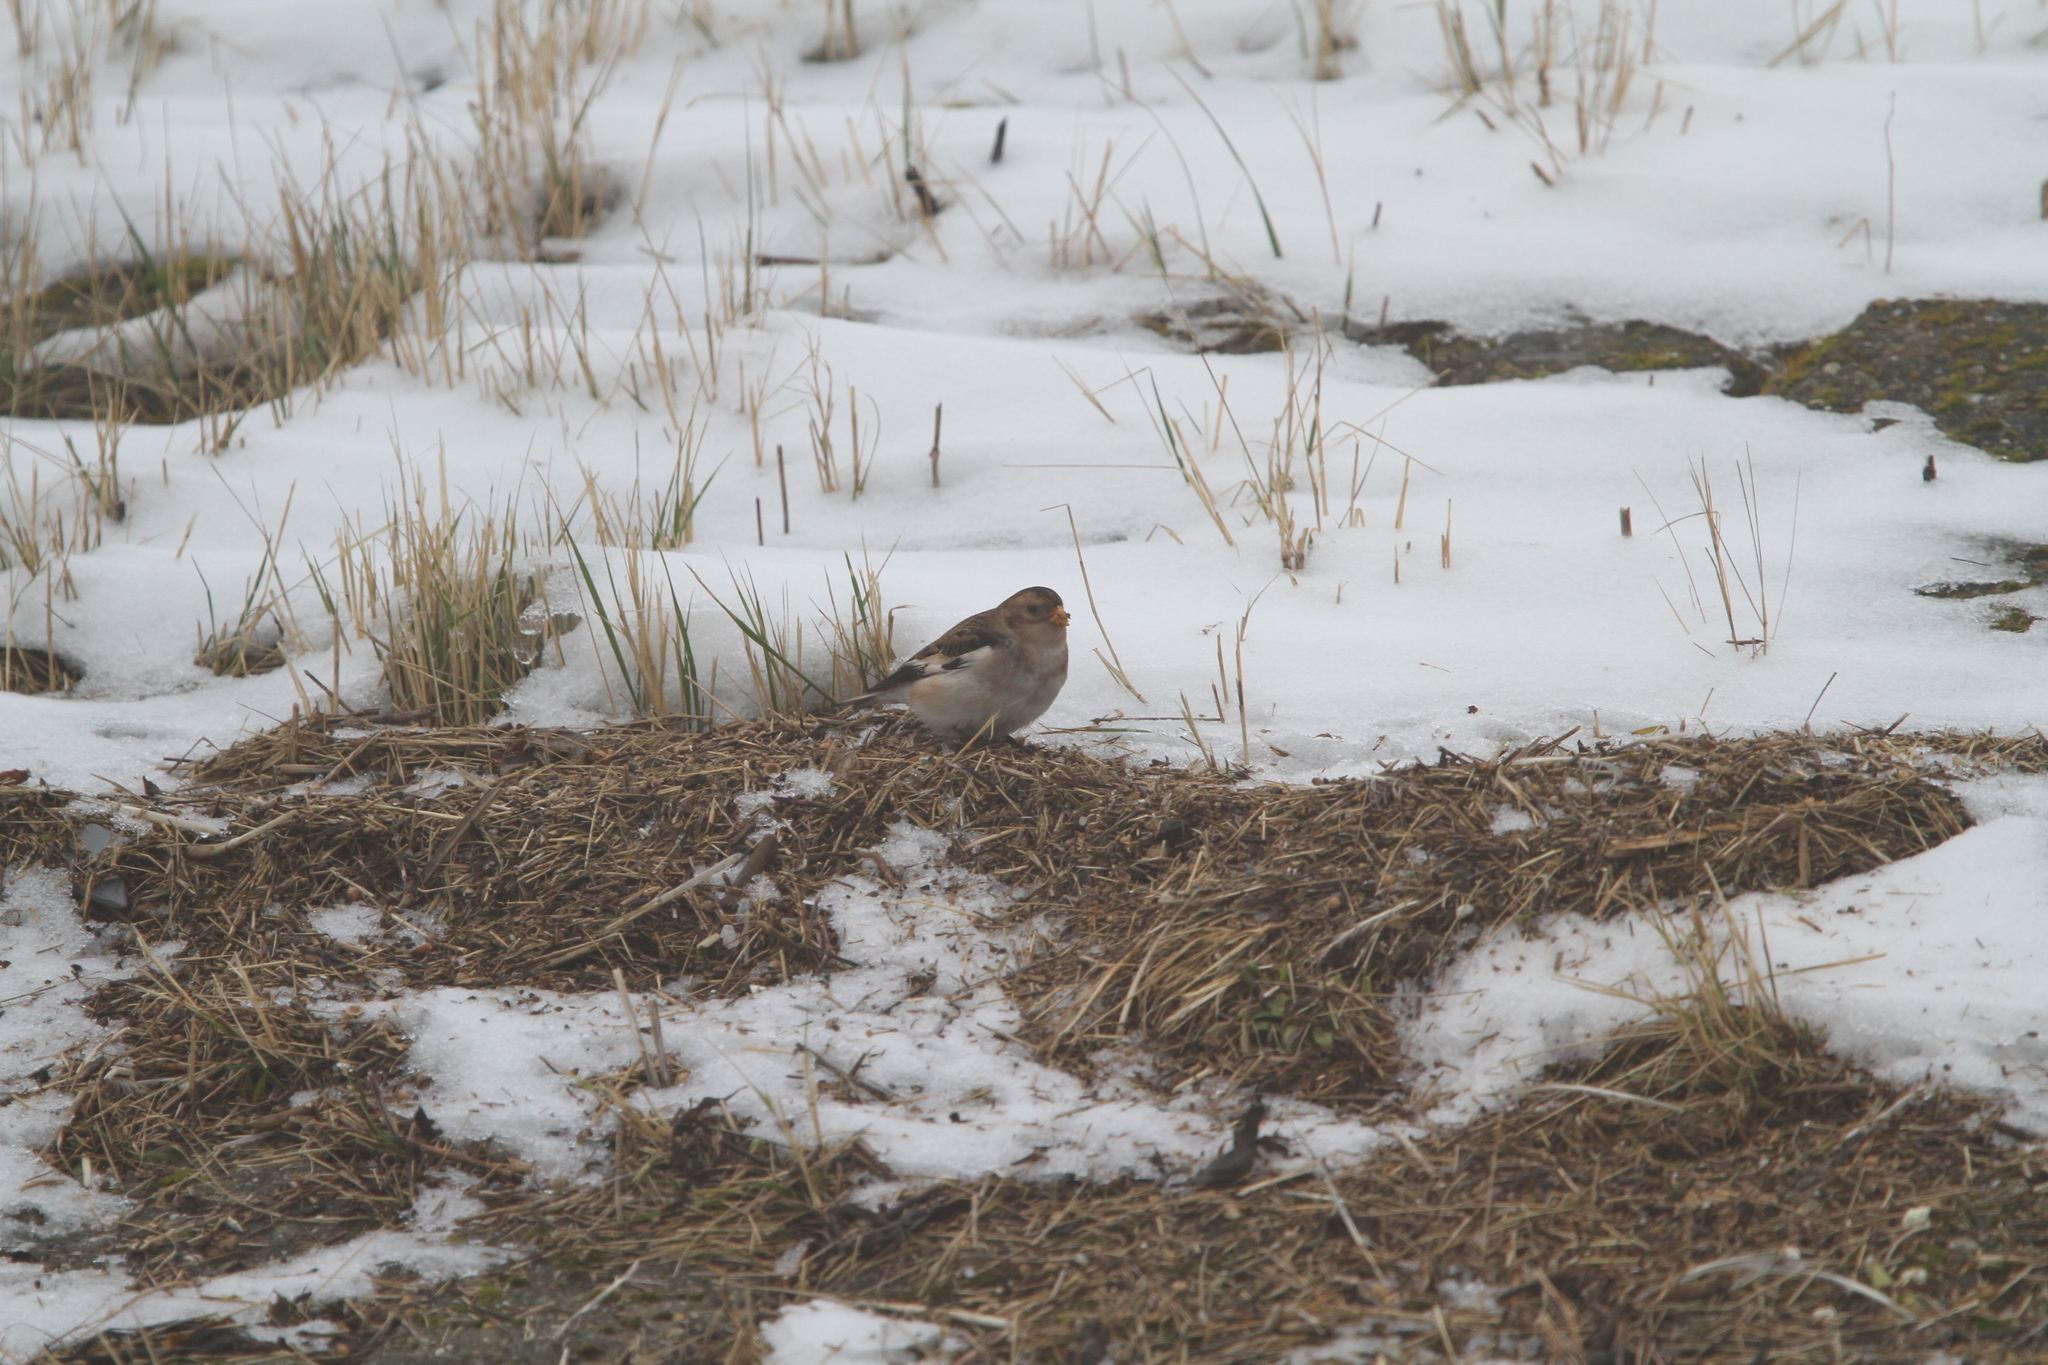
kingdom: Animalia
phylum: Chordata
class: Aves
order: Passeriformes
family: Calcariidae
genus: Plectrophenax
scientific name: Plectrophenax nivalis
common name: Snow bunting
